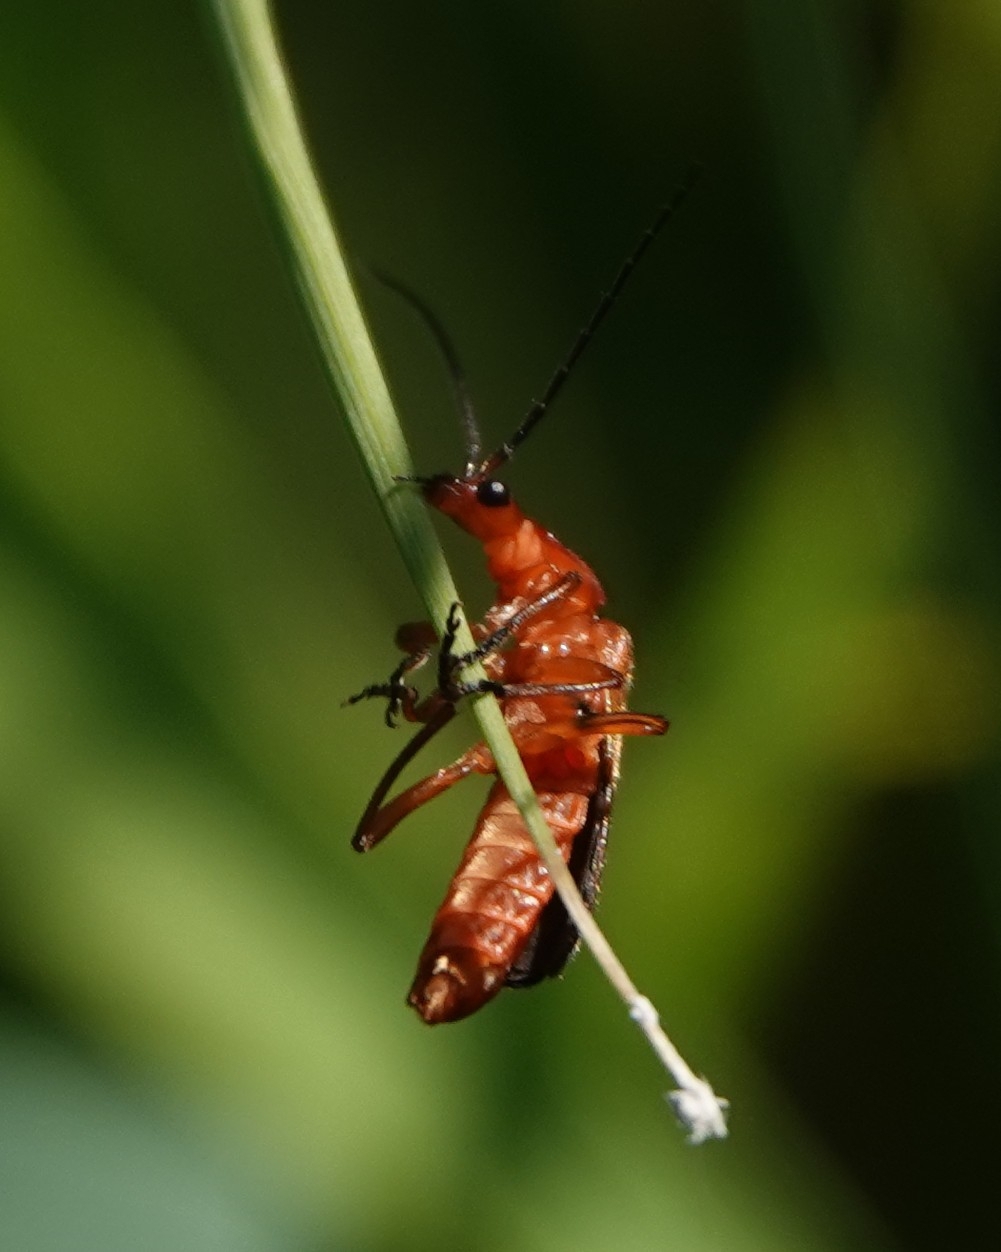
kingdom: Animalia
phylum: Arthropoda
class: Insecta
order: Coleoptera
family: Cantharidae
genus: Rhagonycha
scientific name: Rhagonycha fulva
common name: Common red soldier beetle
